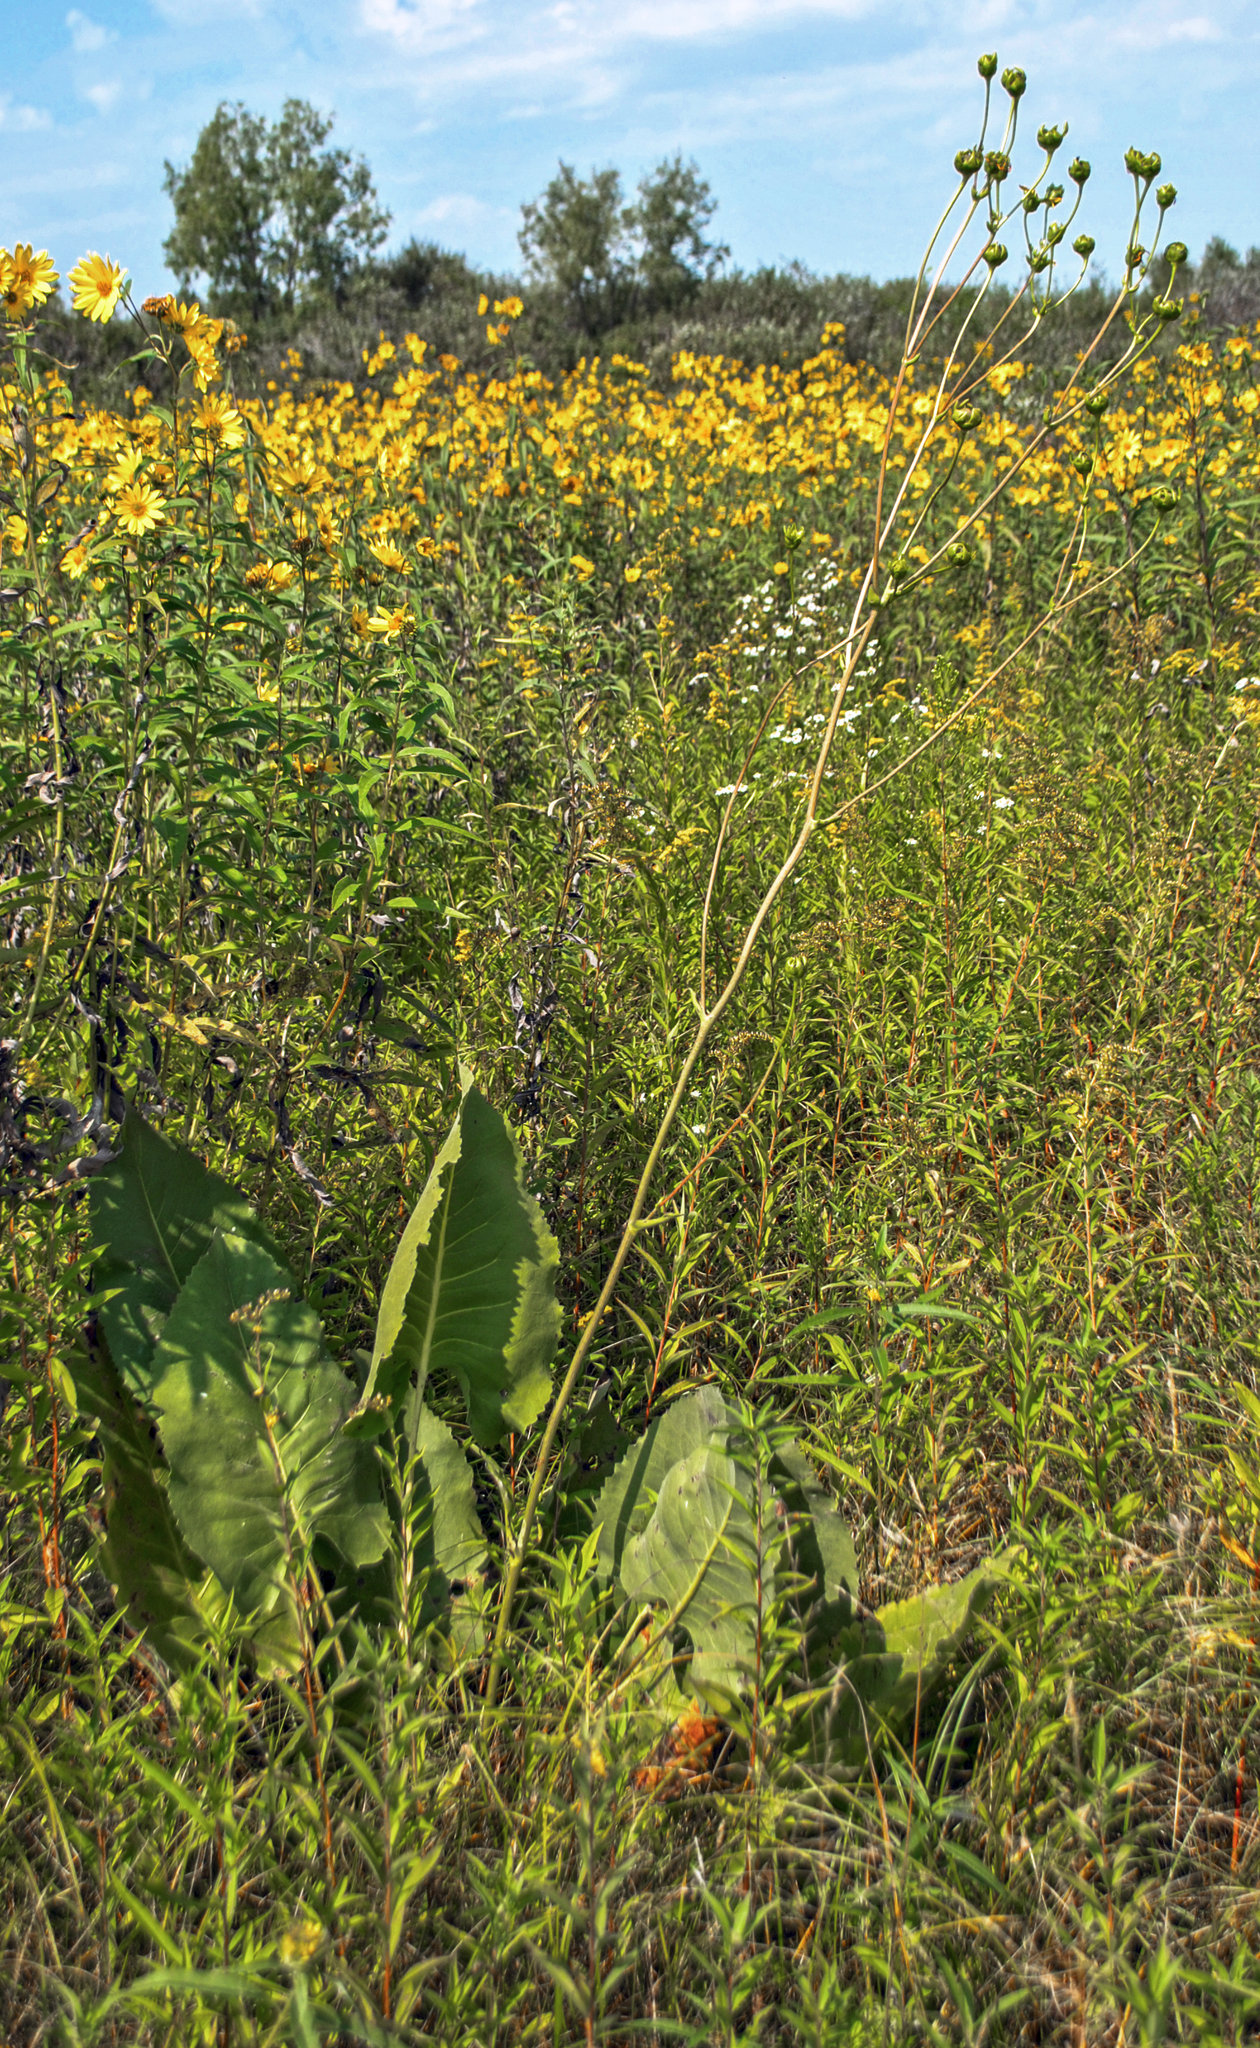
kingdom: Plantae
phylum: Tracheophyta
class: Magnoliopsida
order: Asterales
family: Asteraceae
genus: Silphium
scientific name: Silphium terebinthinaceum
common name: Basal-leaf rosinweed
